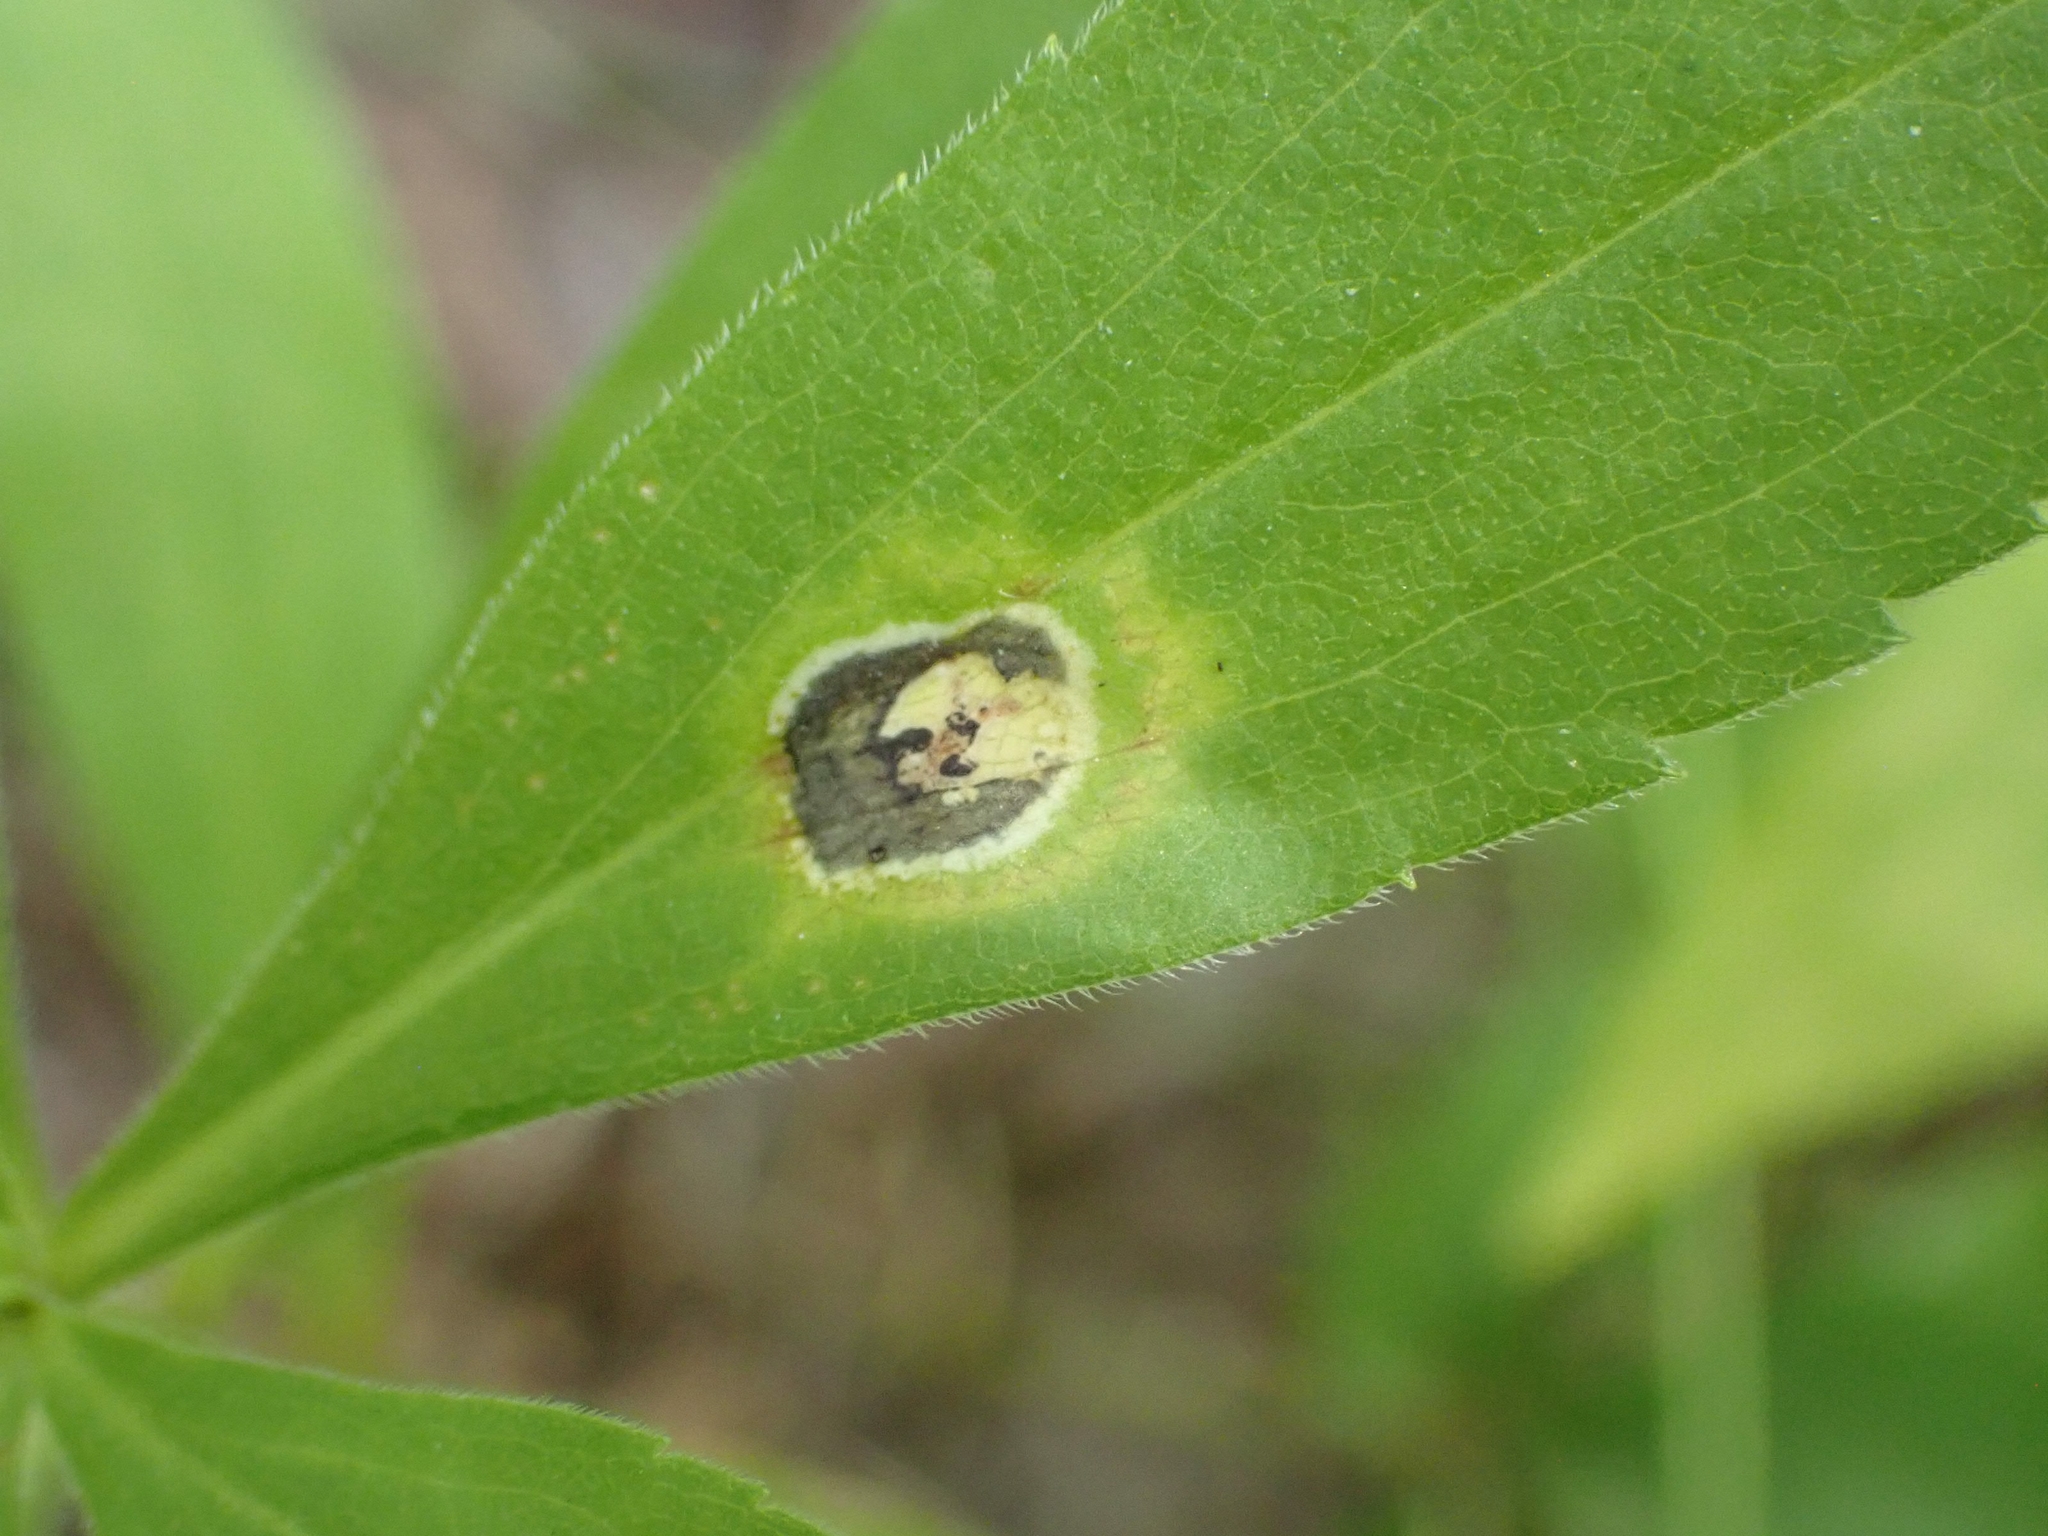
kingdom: Animalia
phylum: Arthropoda
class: Insecta
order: Diptera
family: Cecidomyiidae
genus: Asteromyia
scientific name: Asteromyia carbonifera
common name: Carbonifera goldenrod gall midge
